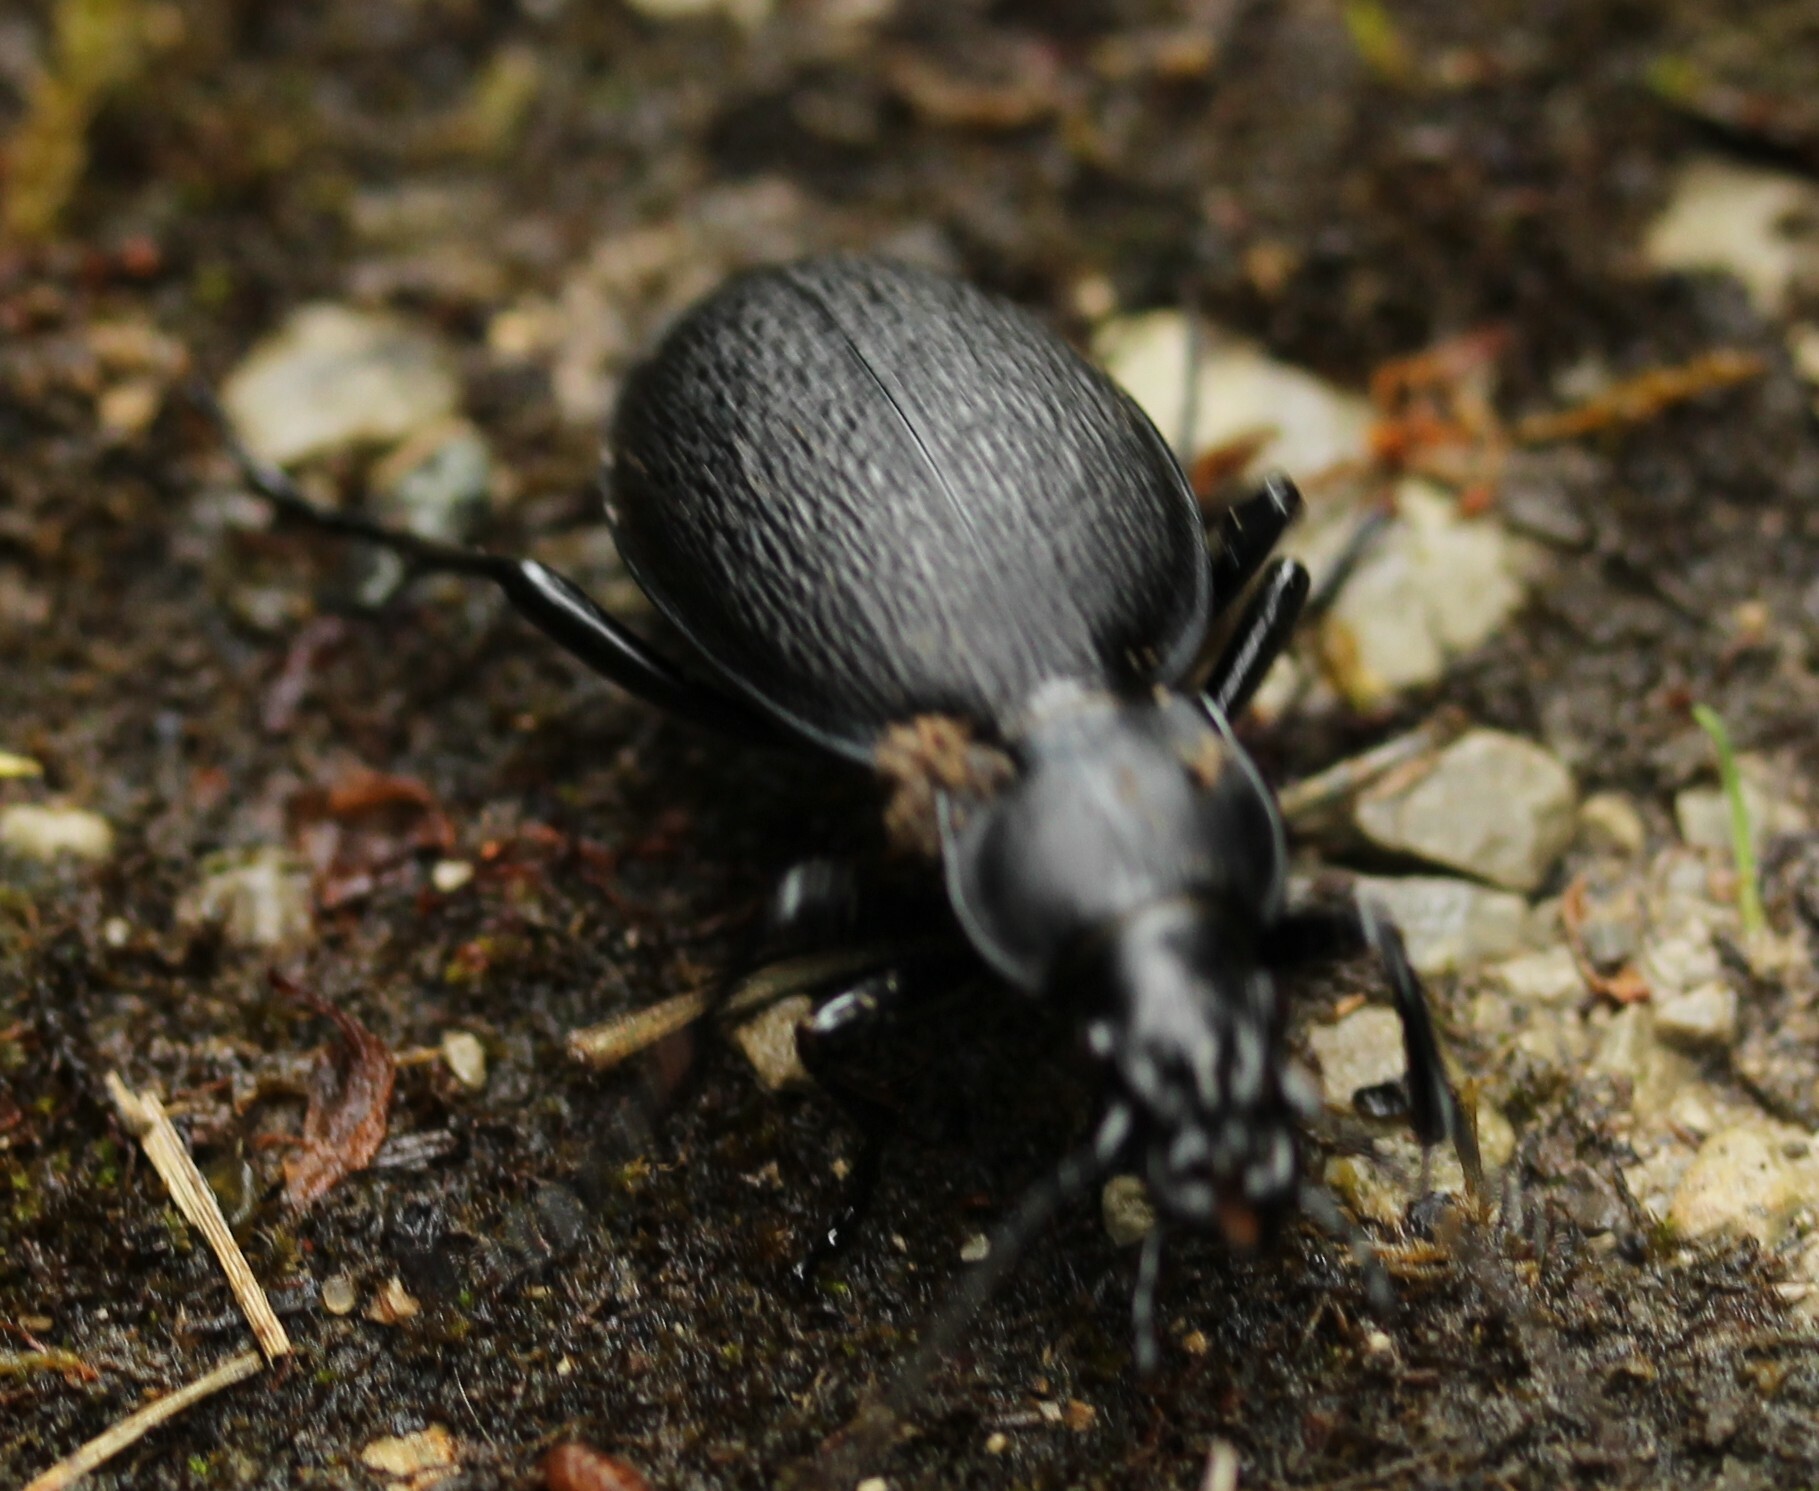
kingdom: Animalia
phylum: Arthropoda
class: Insecta
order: Coleoptera
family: Carabidae
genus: Carabus
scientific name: Carabus coriaceus
